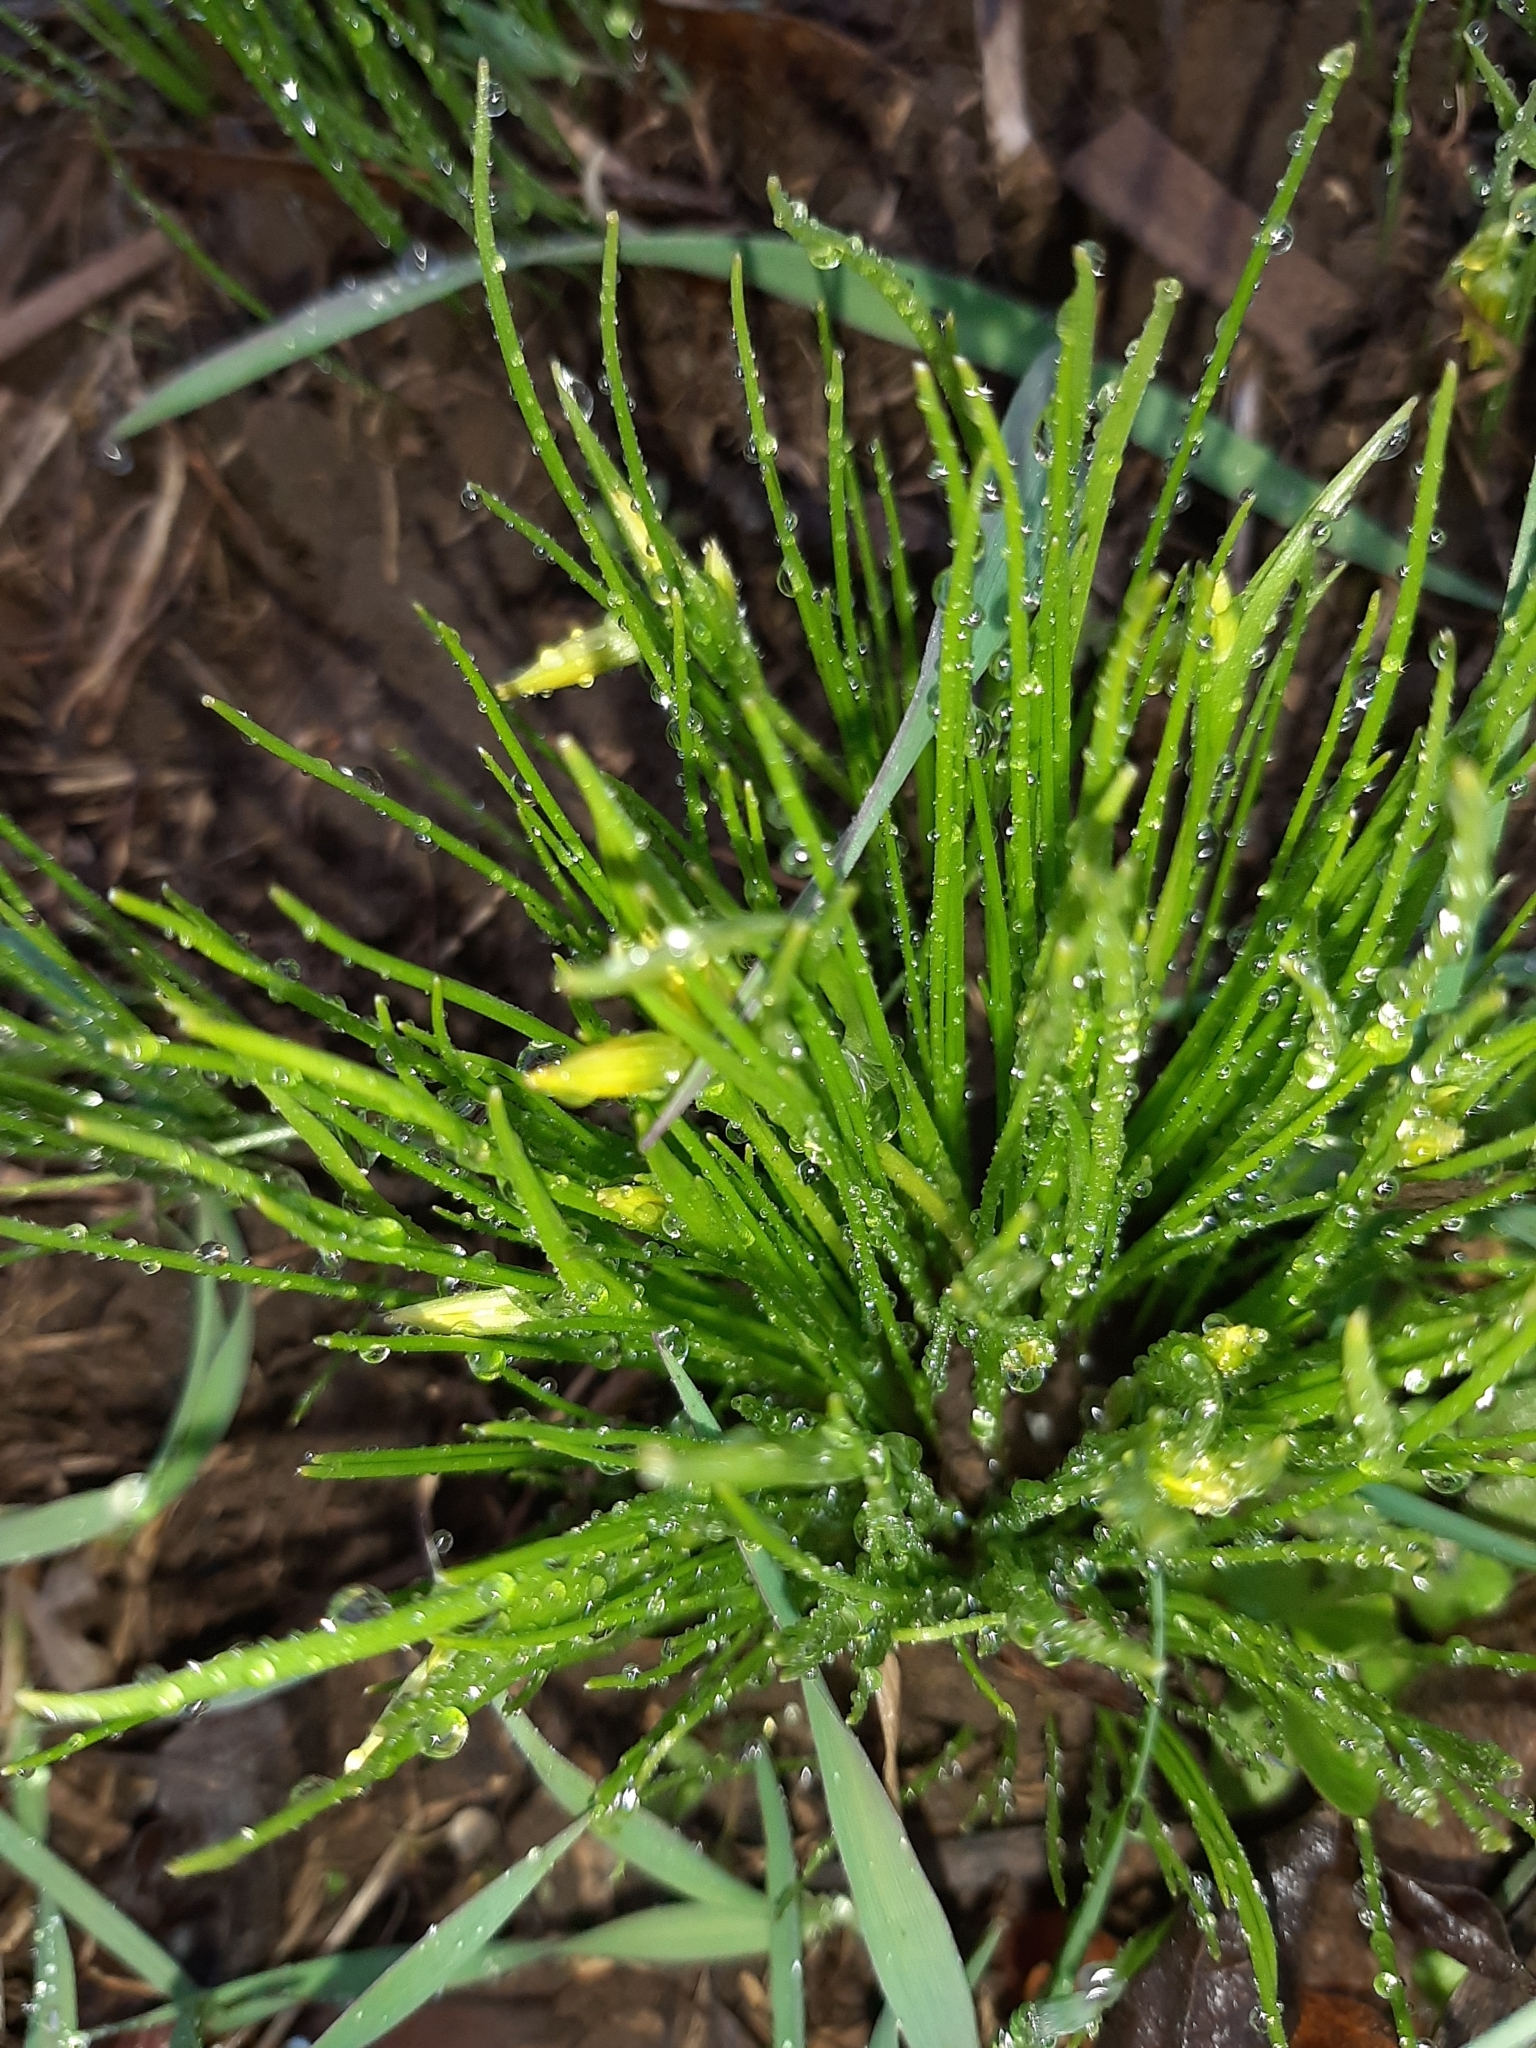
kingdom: Plantae
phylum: Tracheophyta
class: Liliopsida
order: Liliales
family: Liliaceae
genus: Gagea
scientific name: Gagea minima
